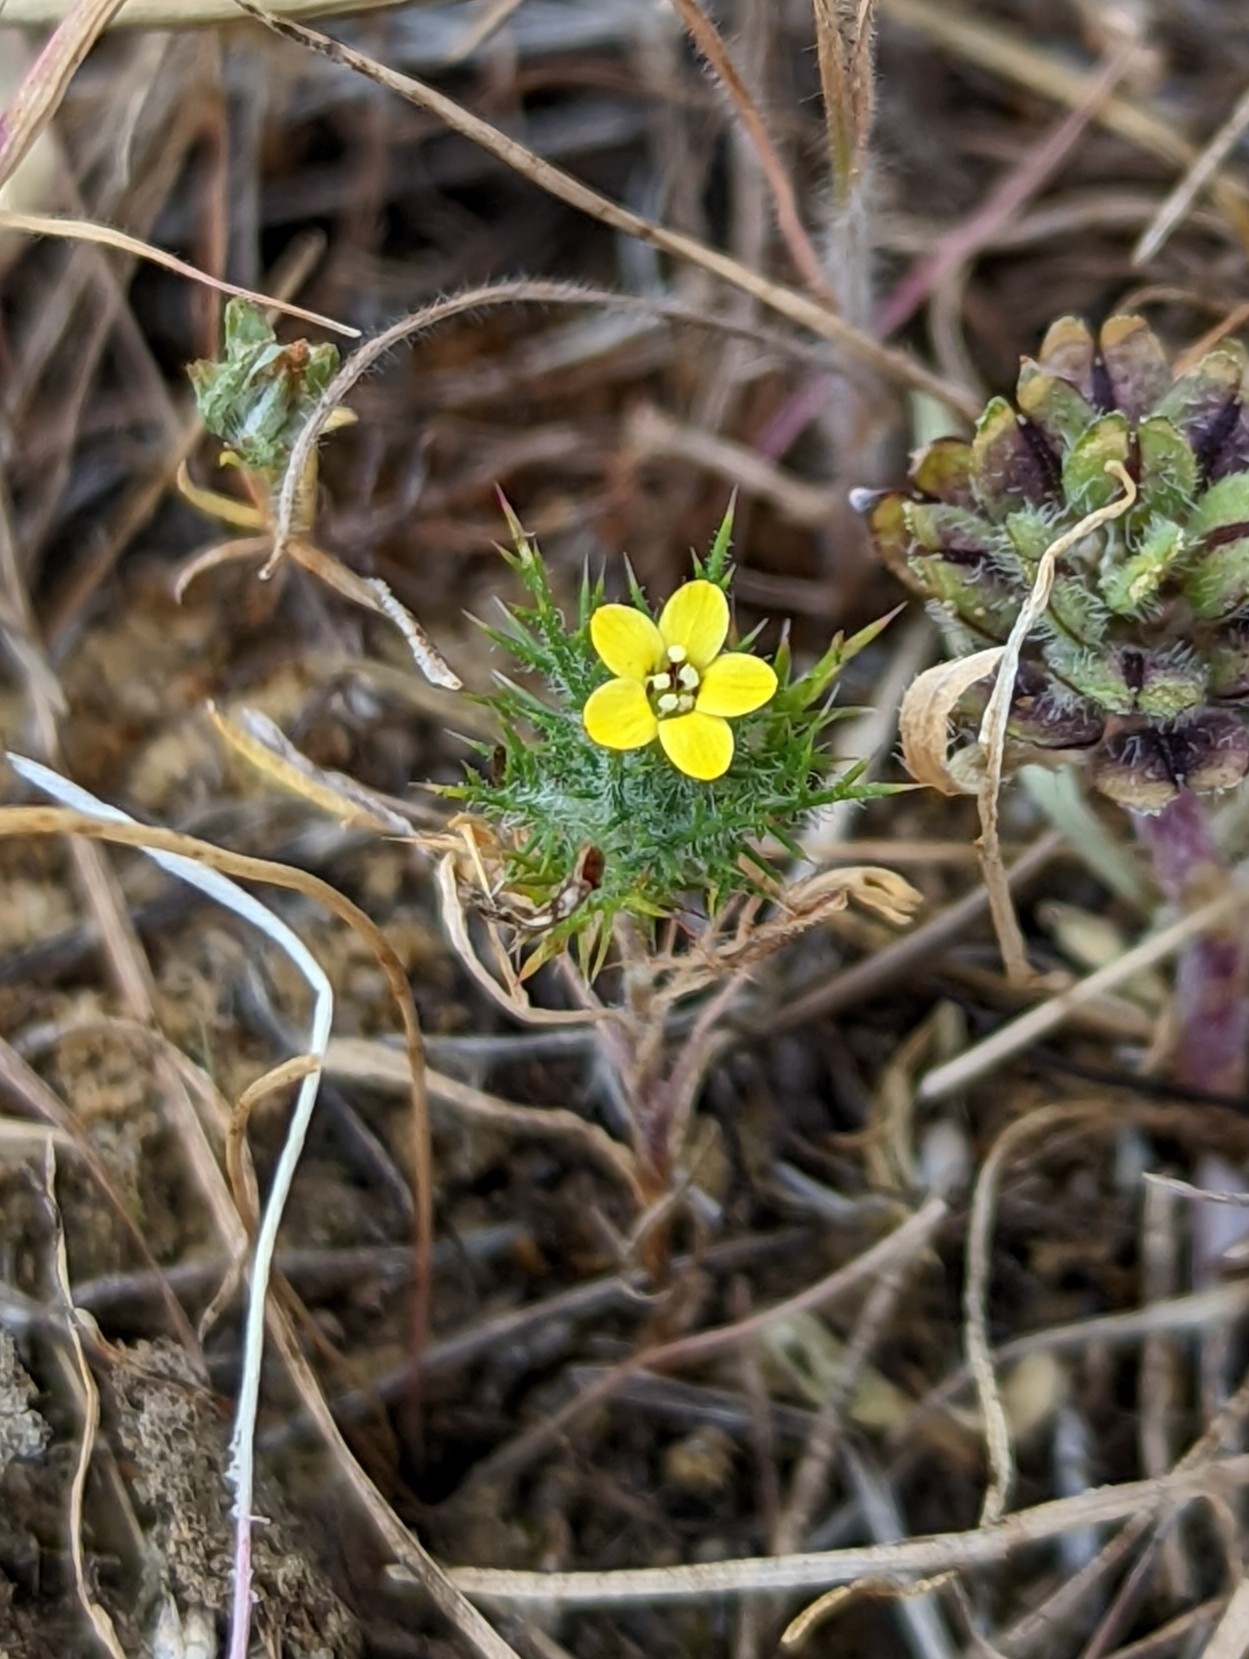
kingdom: Plantae
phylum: Tracheophyta
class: Magnoliopsida
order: Ericales
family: Polemoniaceae
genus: Navarretia
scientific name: Navarretia nigelliformis
